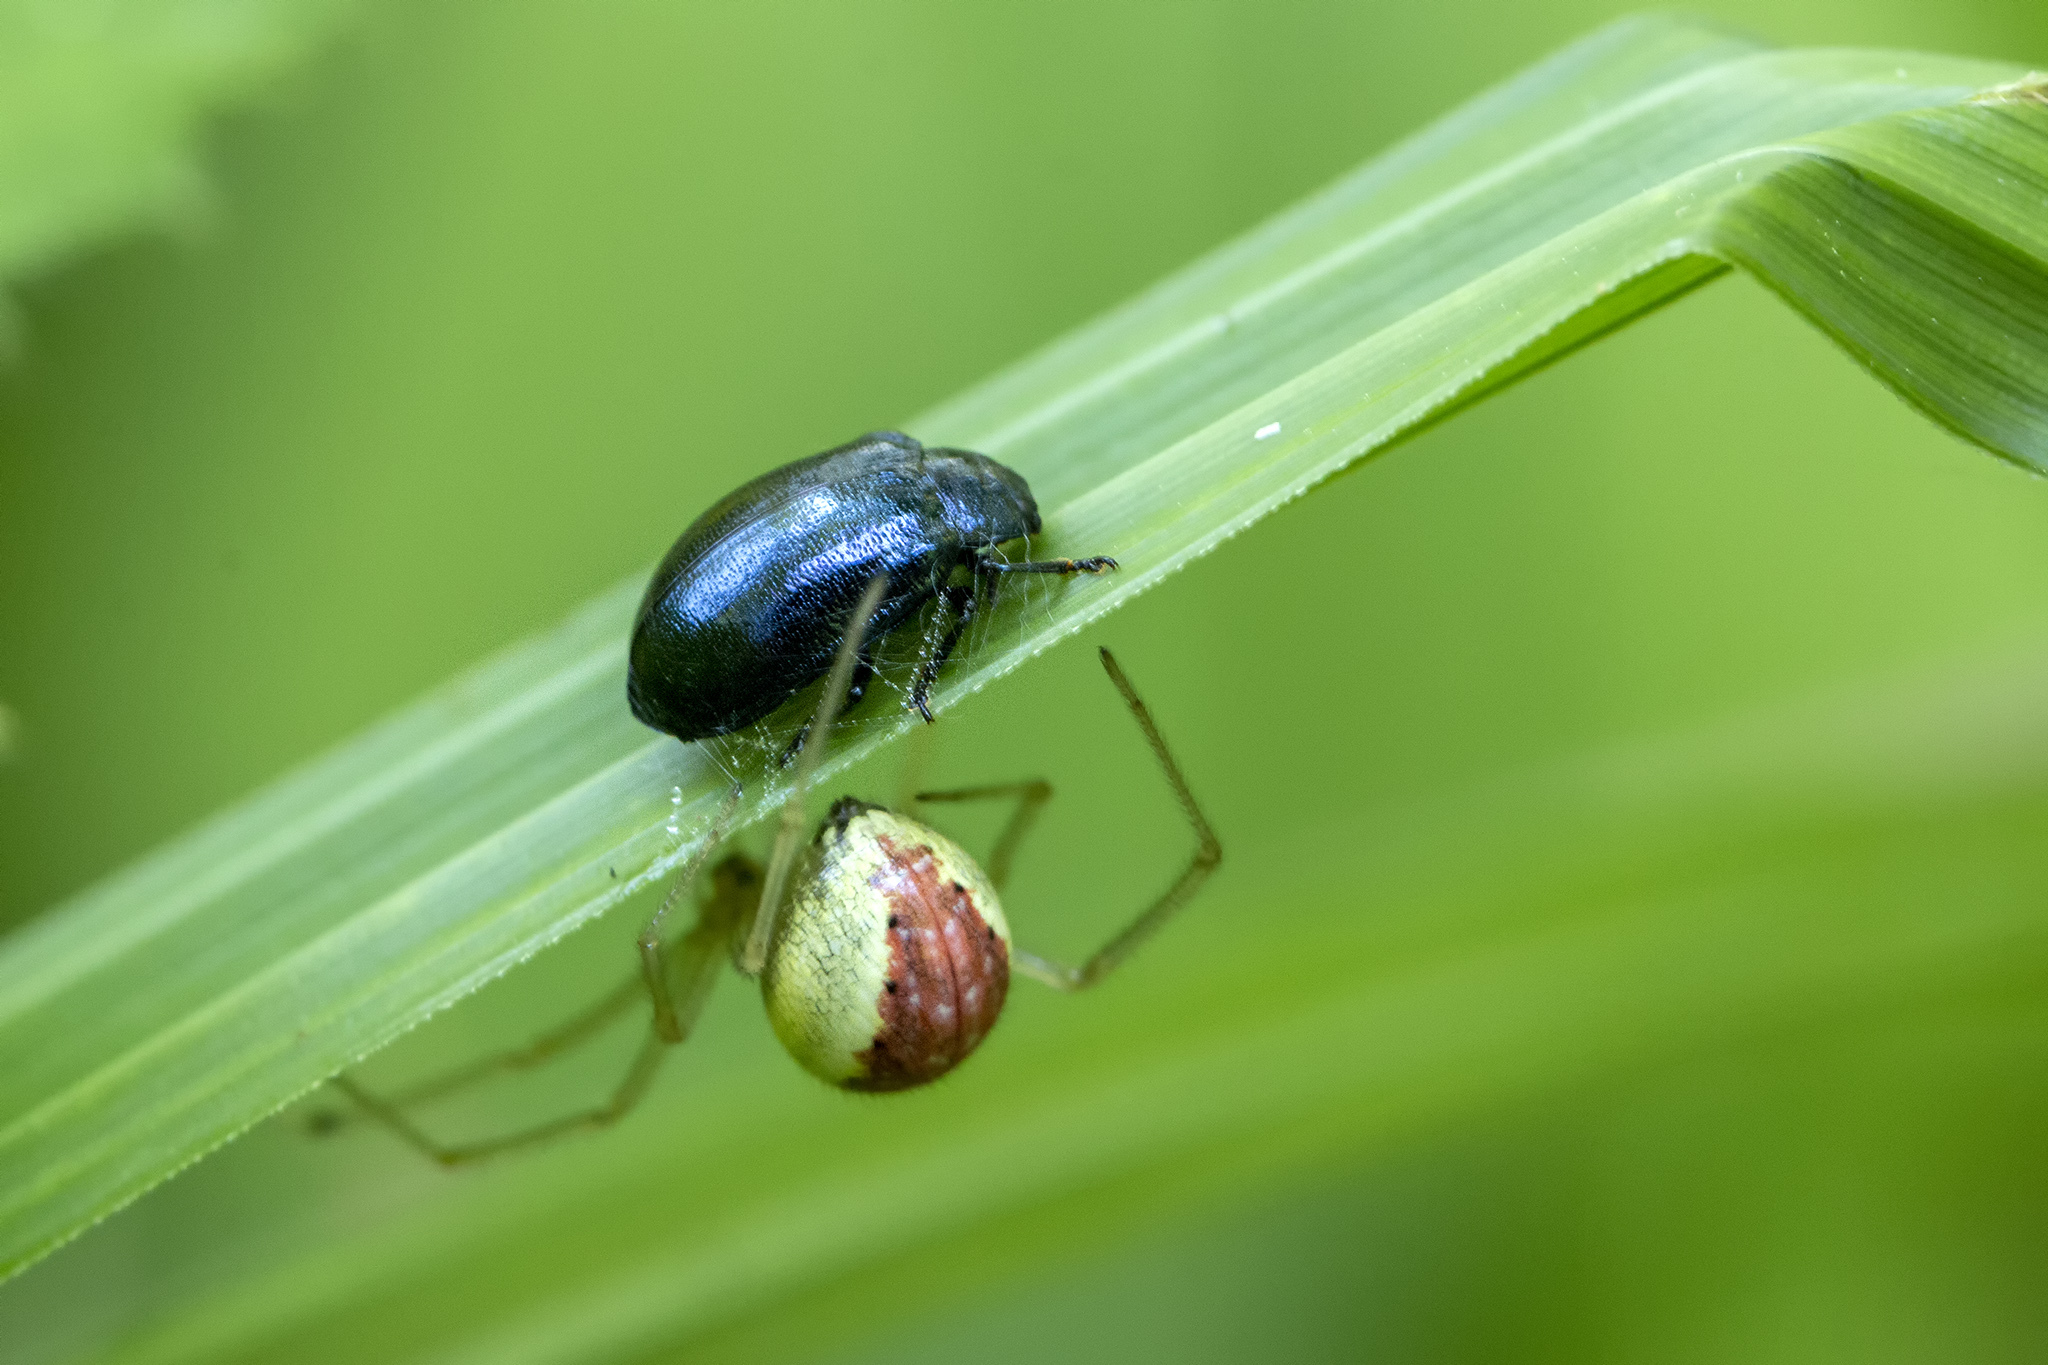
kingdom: Animalia
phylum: Arthropoda
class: Arachnida
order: Araneae
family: Theridiidae
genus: Enoplognatha
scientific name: Enoplognatha ovata
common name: Common candy-striped spider
